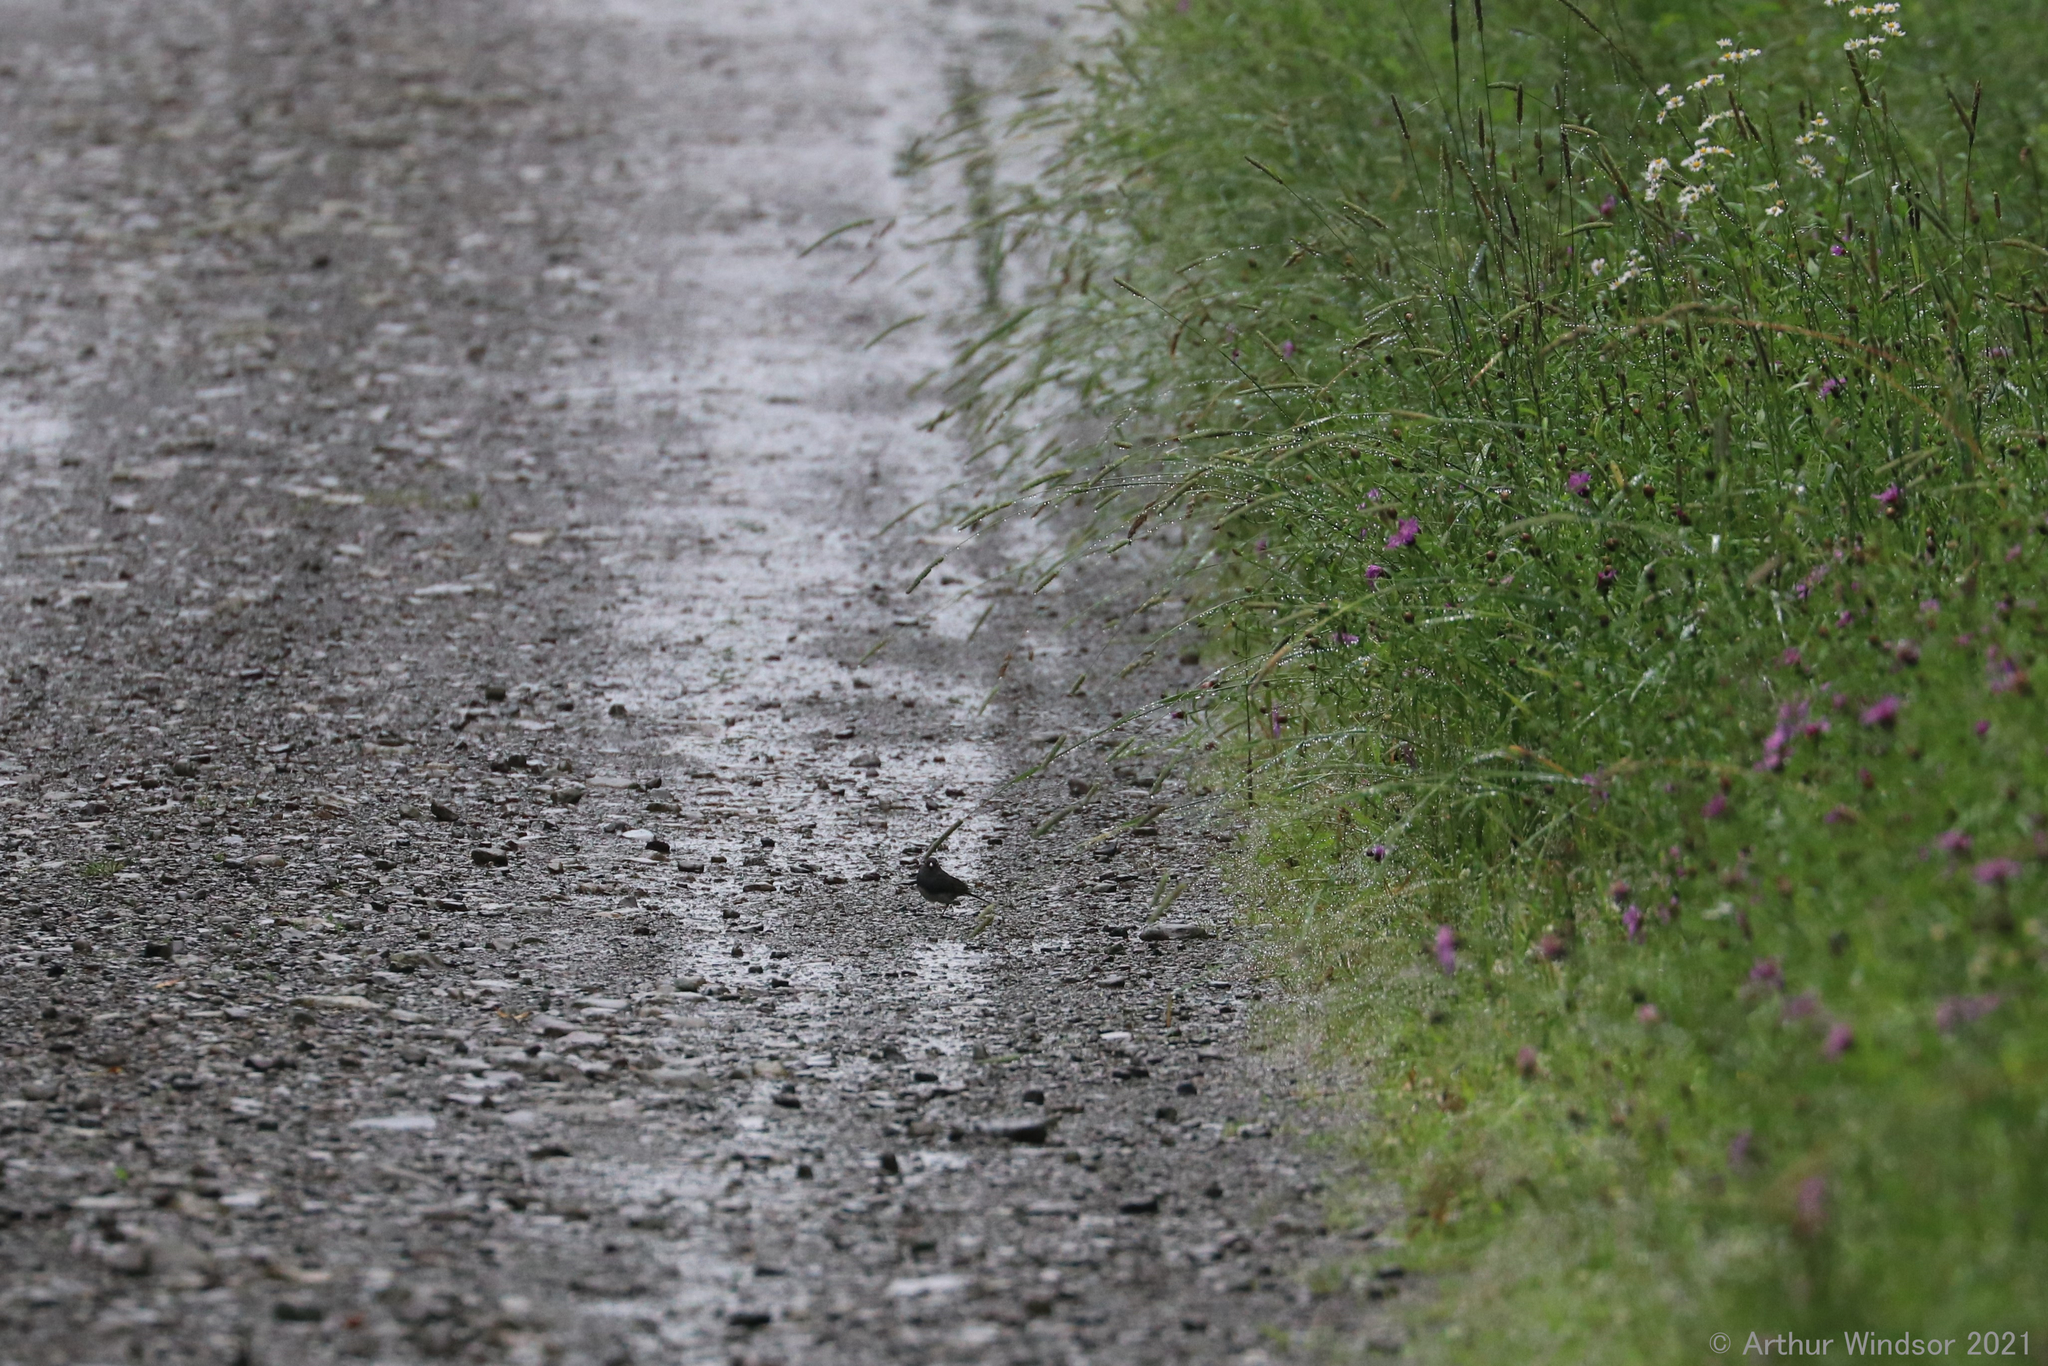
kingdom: Animalia
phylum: Chordata
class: Aves
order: Passeriformes
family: Passerellidae
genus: Junco
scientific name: Junco hyemalis
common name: Dark-eyed junco
